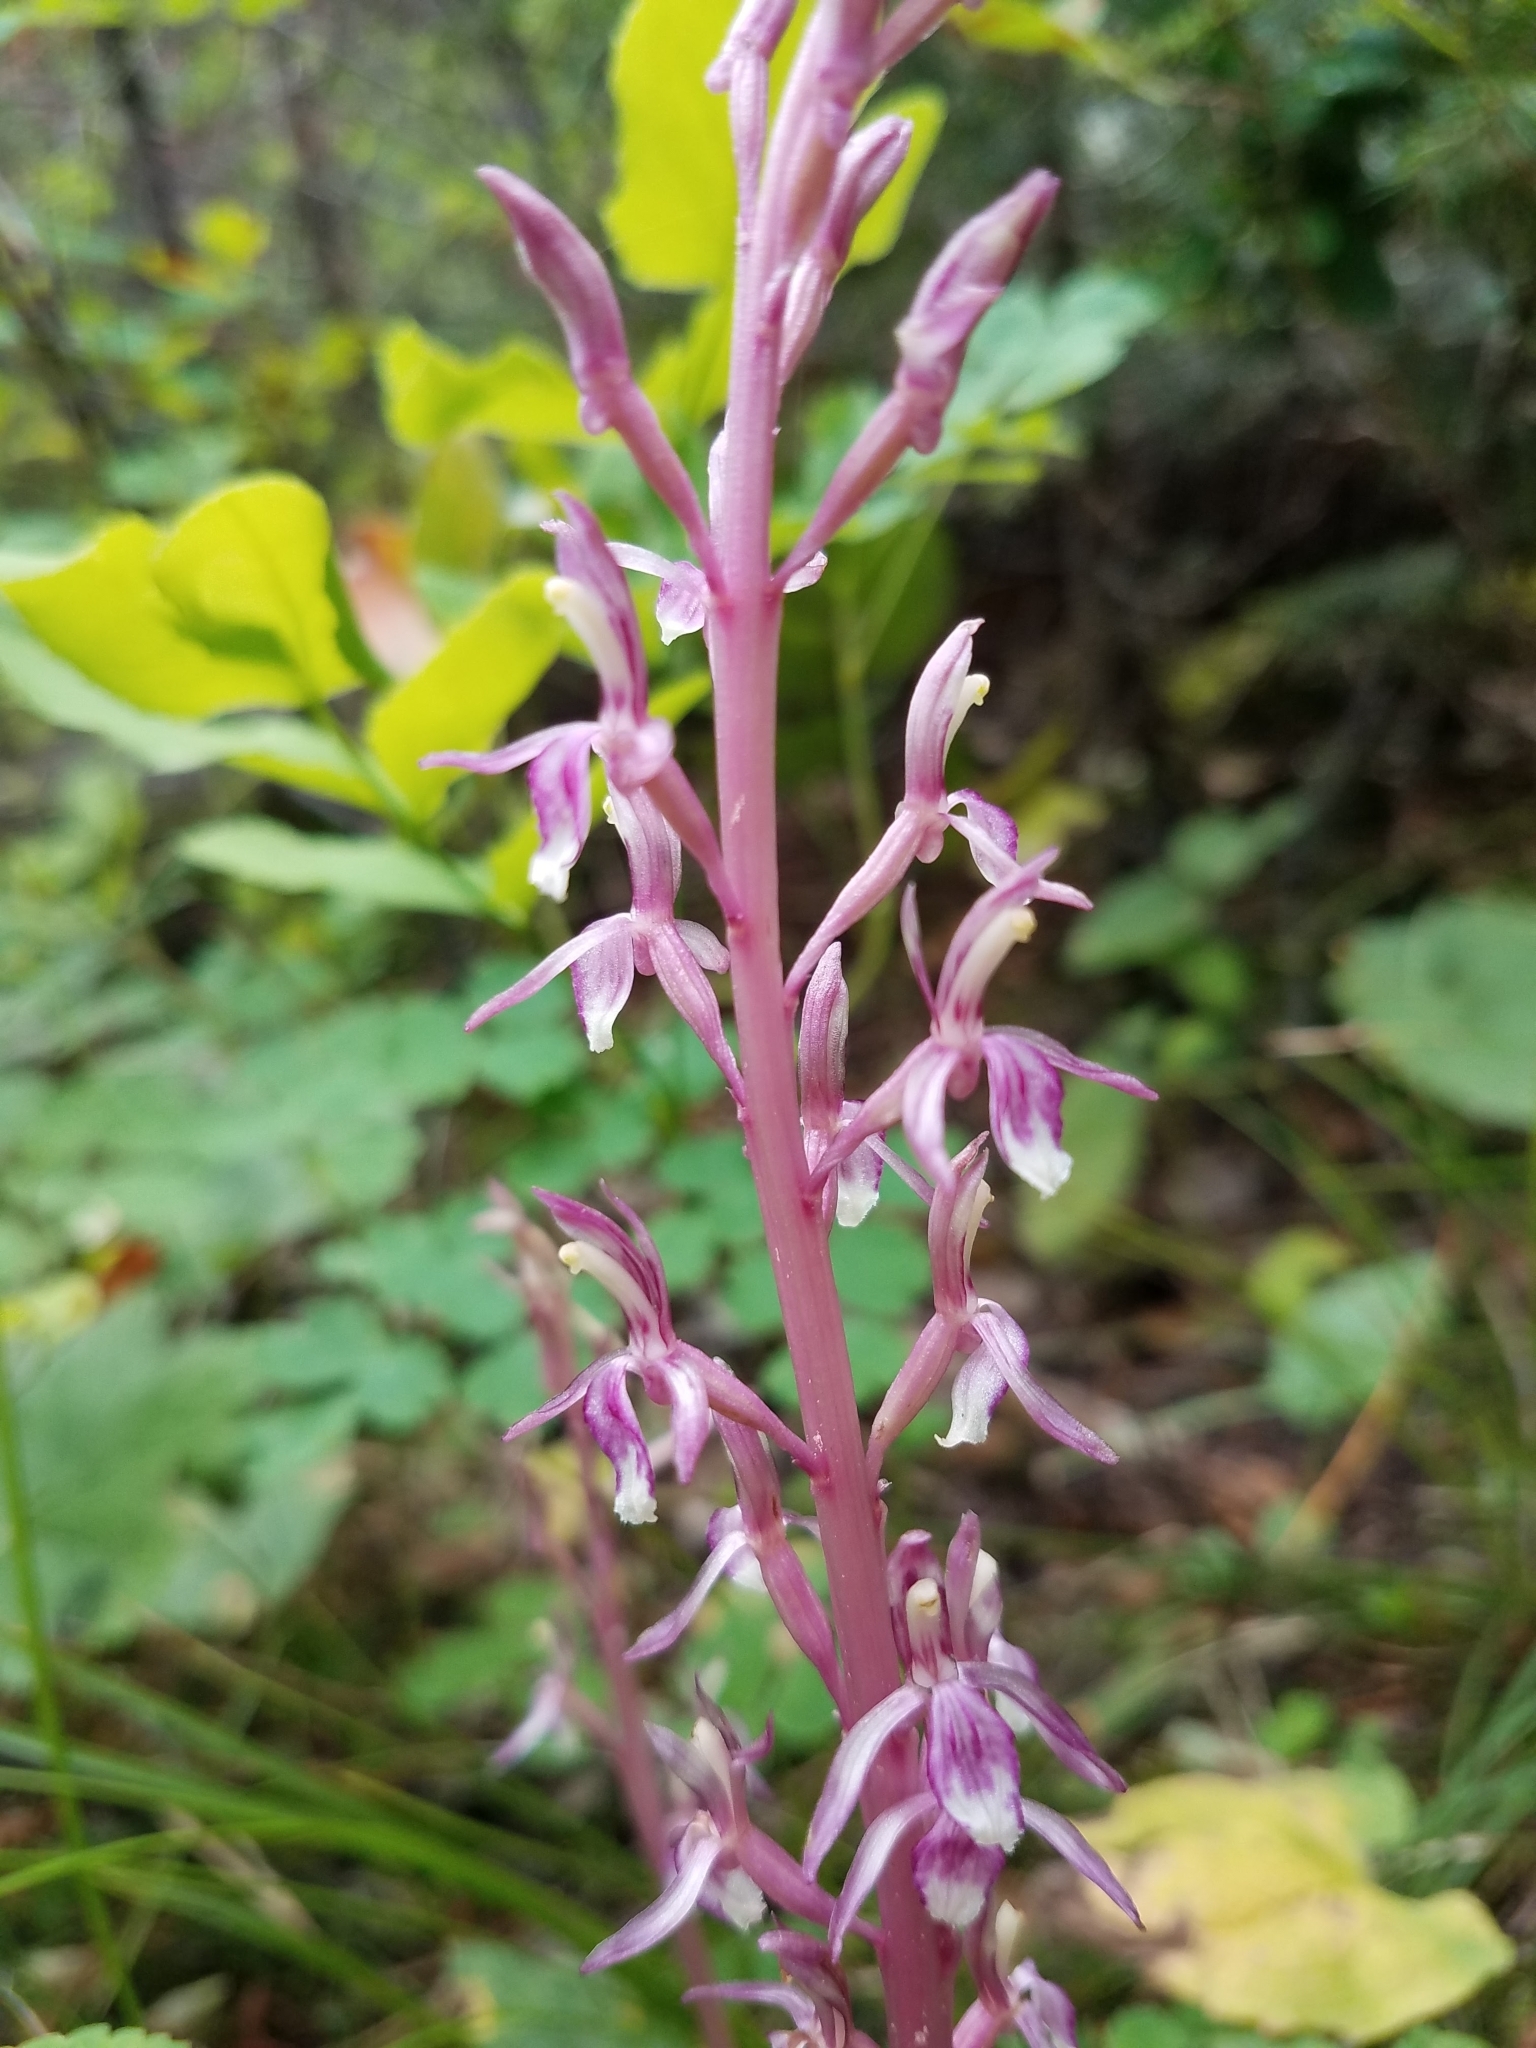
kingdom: Plantae
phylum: Tracheophyta
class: Liliopsida
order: Asparagales
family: Orchidaceae
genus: Corallorhiza
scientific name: Corallorhiza mertensiana
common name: Pacific coralroot
